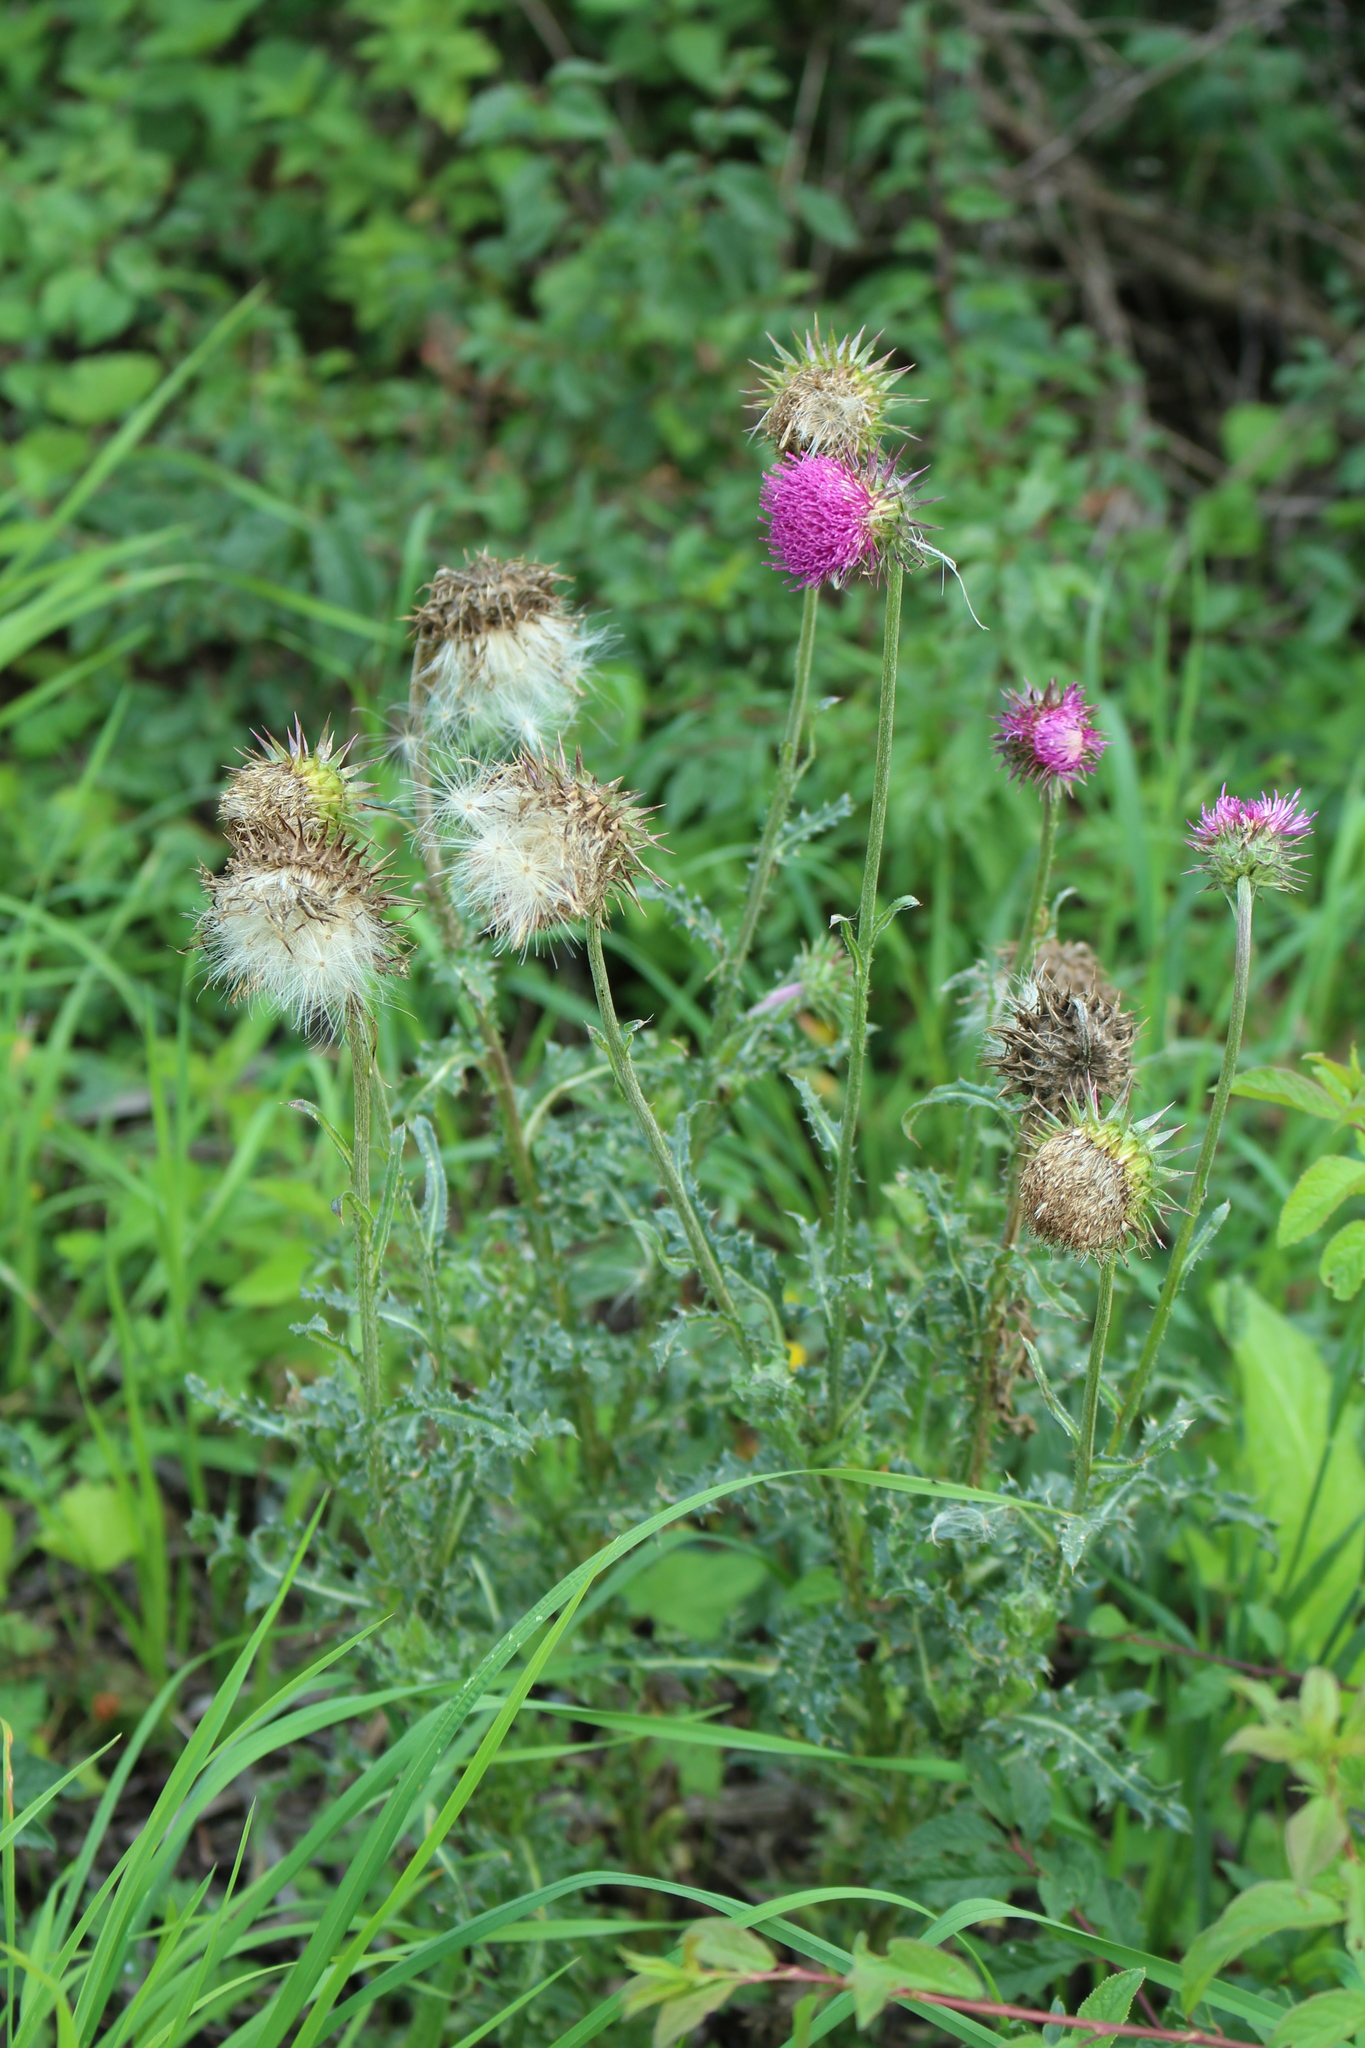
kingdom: Plantae
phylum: Tracheophyta
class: Magnoliopsida
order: Asterales
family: Asteraceae
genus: Carduus
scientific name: Carduus nutans
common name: Musk thistle
